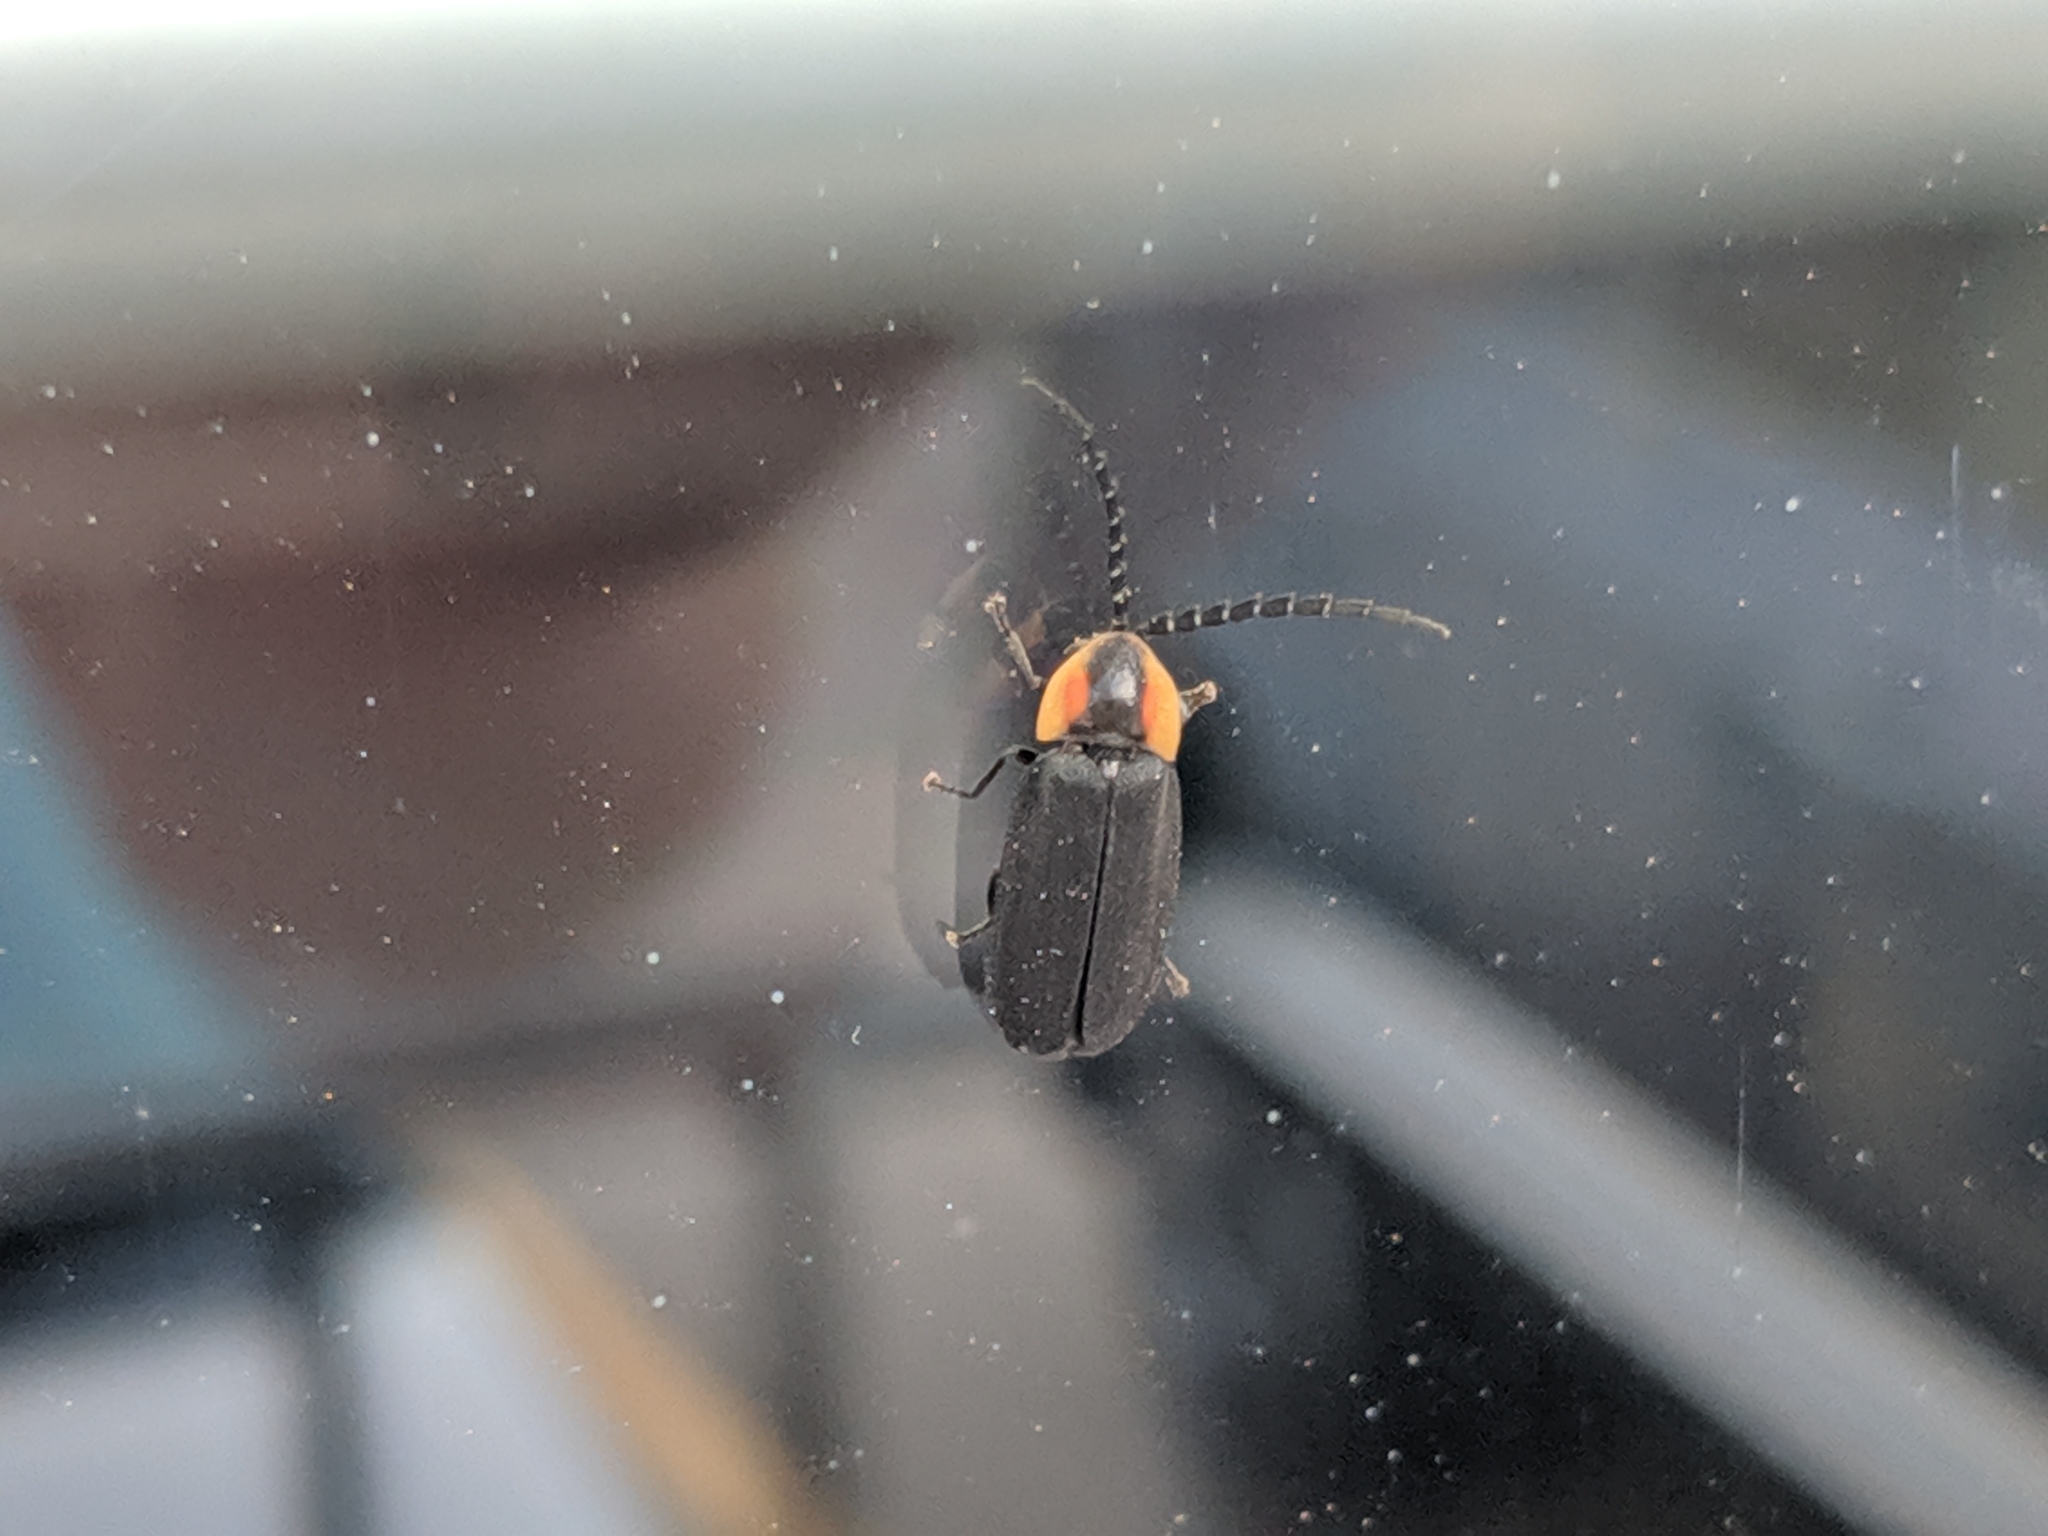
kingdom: Animalia
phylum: Arthropoda
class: Insecta
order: Coleoptera
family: Lampyridae
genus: Lucidota
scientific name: Lucidota atra
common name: Black firefly
